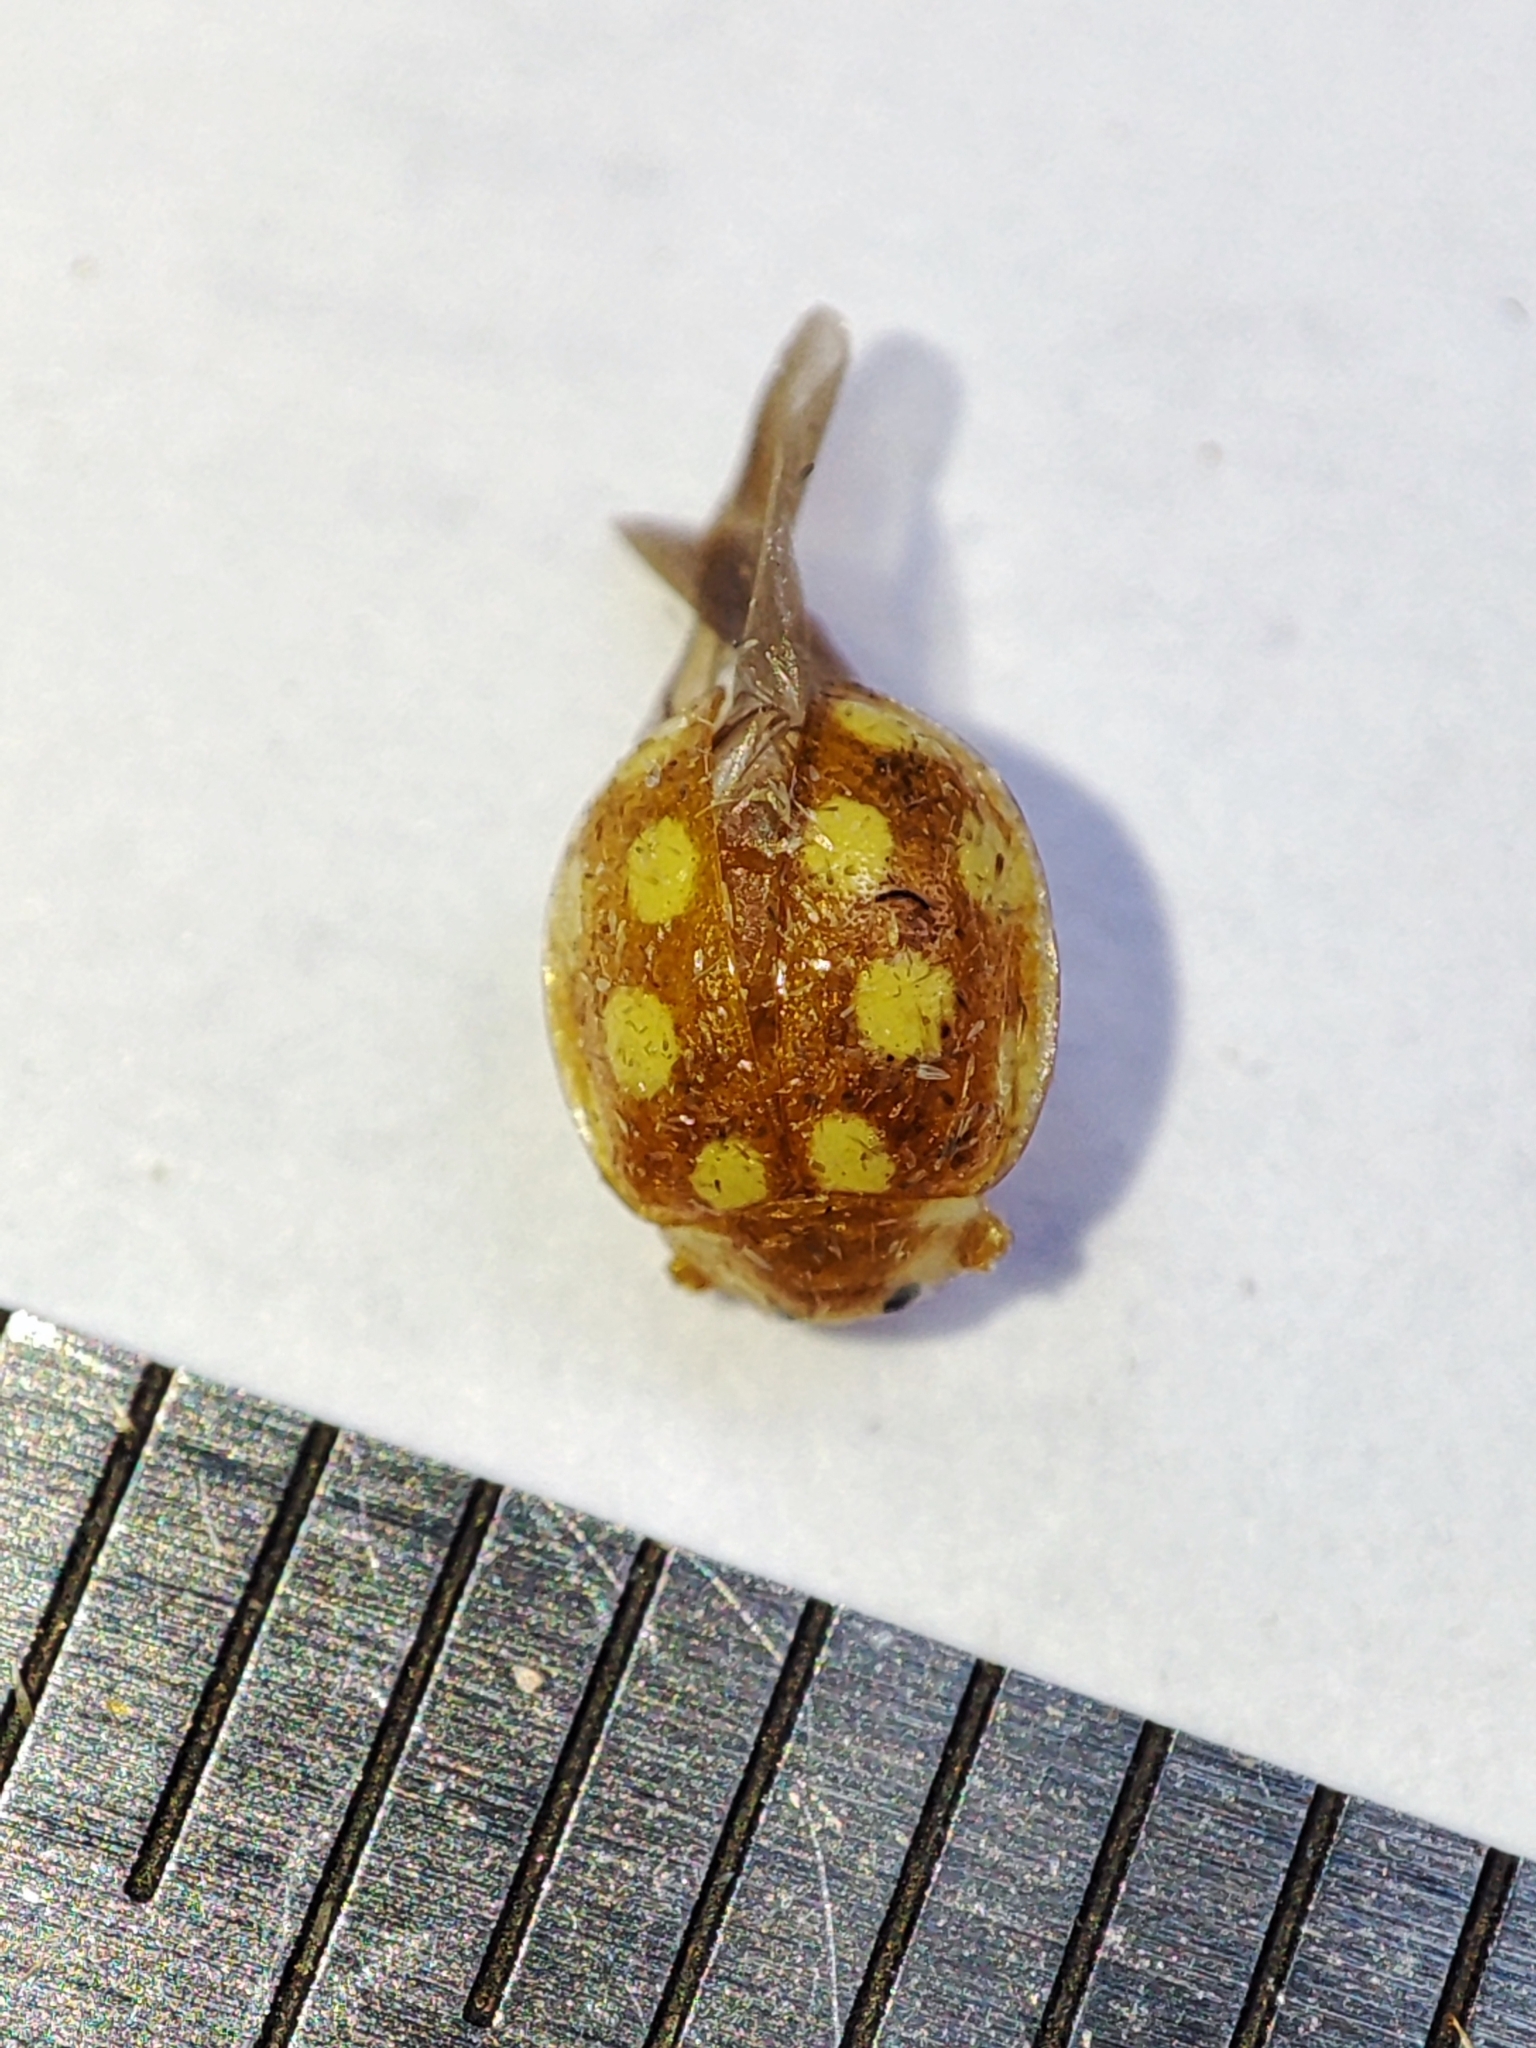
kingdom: Animalia
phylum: Arthropoda
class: Insecta
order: Coleoptera
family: Coccinellidae
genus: Vibidia
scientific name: Vibidia duodecimguttata
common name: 12-spot ladybird
